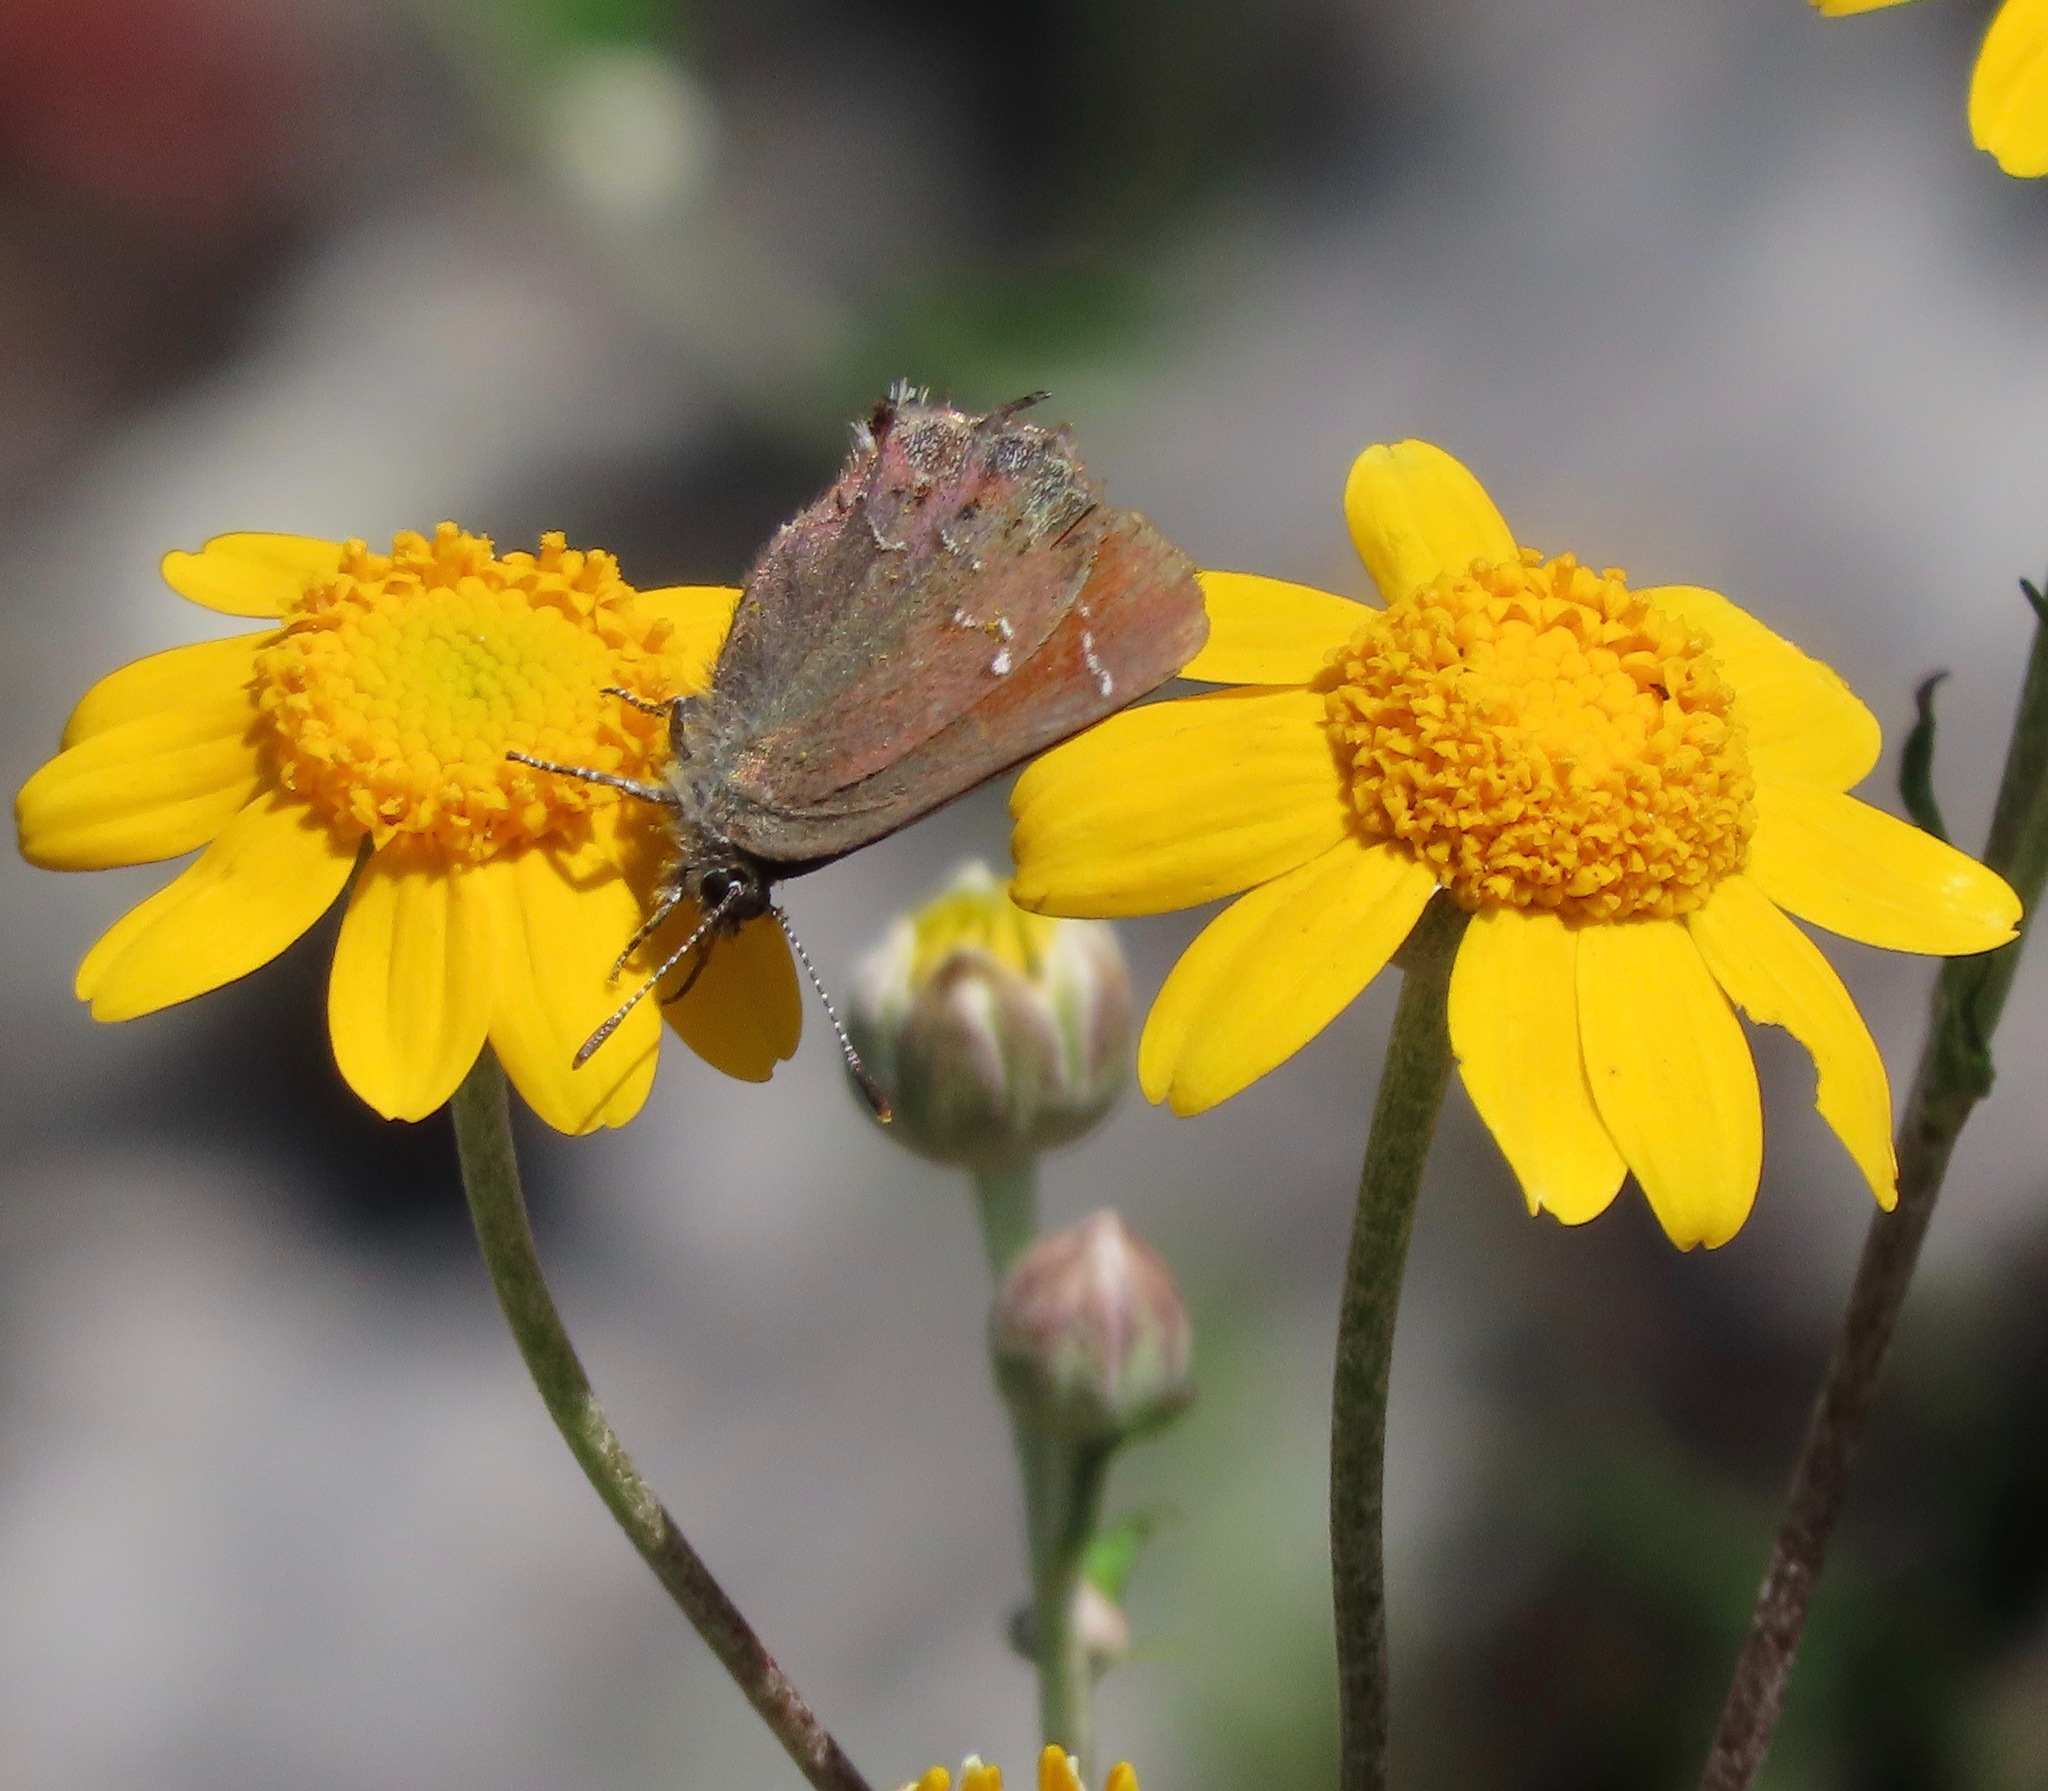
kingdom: Animalia
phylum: Arthropoda
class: Insecta
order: Lepidoptera
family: Lycaenidae
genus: Callophrys
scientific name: Callophrys muiri
